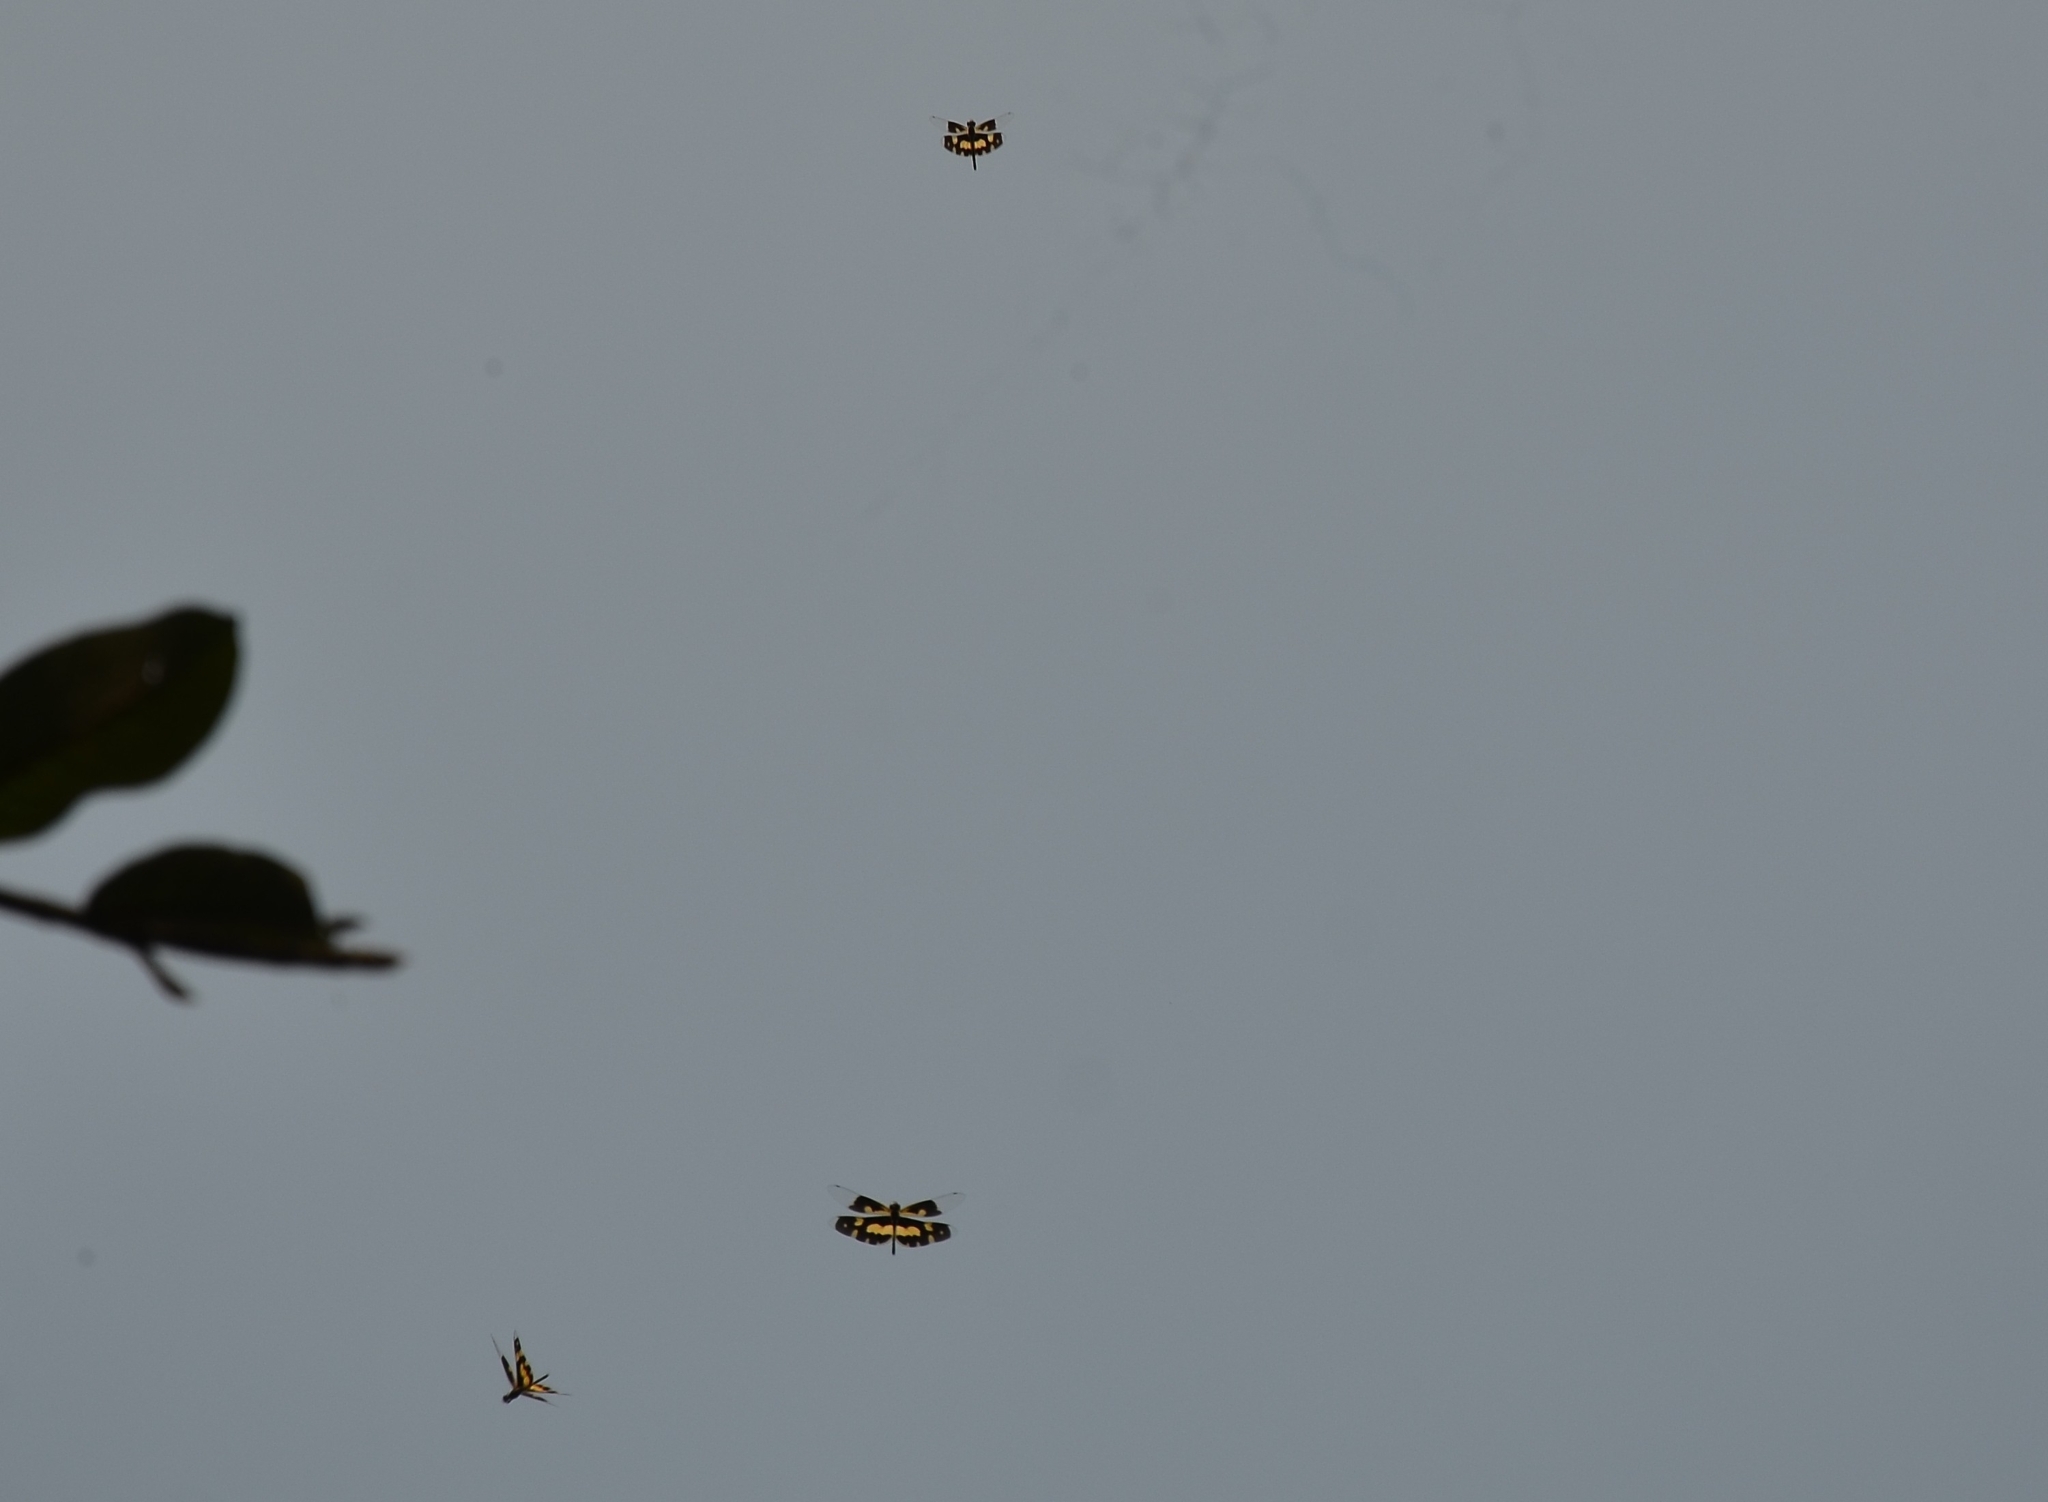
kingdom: Animalia
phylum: Arthropoda
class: Insecta
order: Odonata
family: Libellulidae
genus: Rhyothemis
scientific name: Rhyothemis variegata
